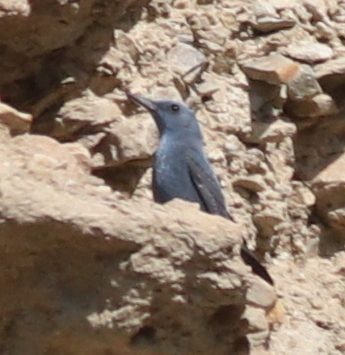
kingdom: Animalia
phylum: Chordata
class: Aves
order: Passeriformes
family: Muscicapidae
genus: Monticola
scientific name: Monticola solitarius
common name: Blue rock thrush
